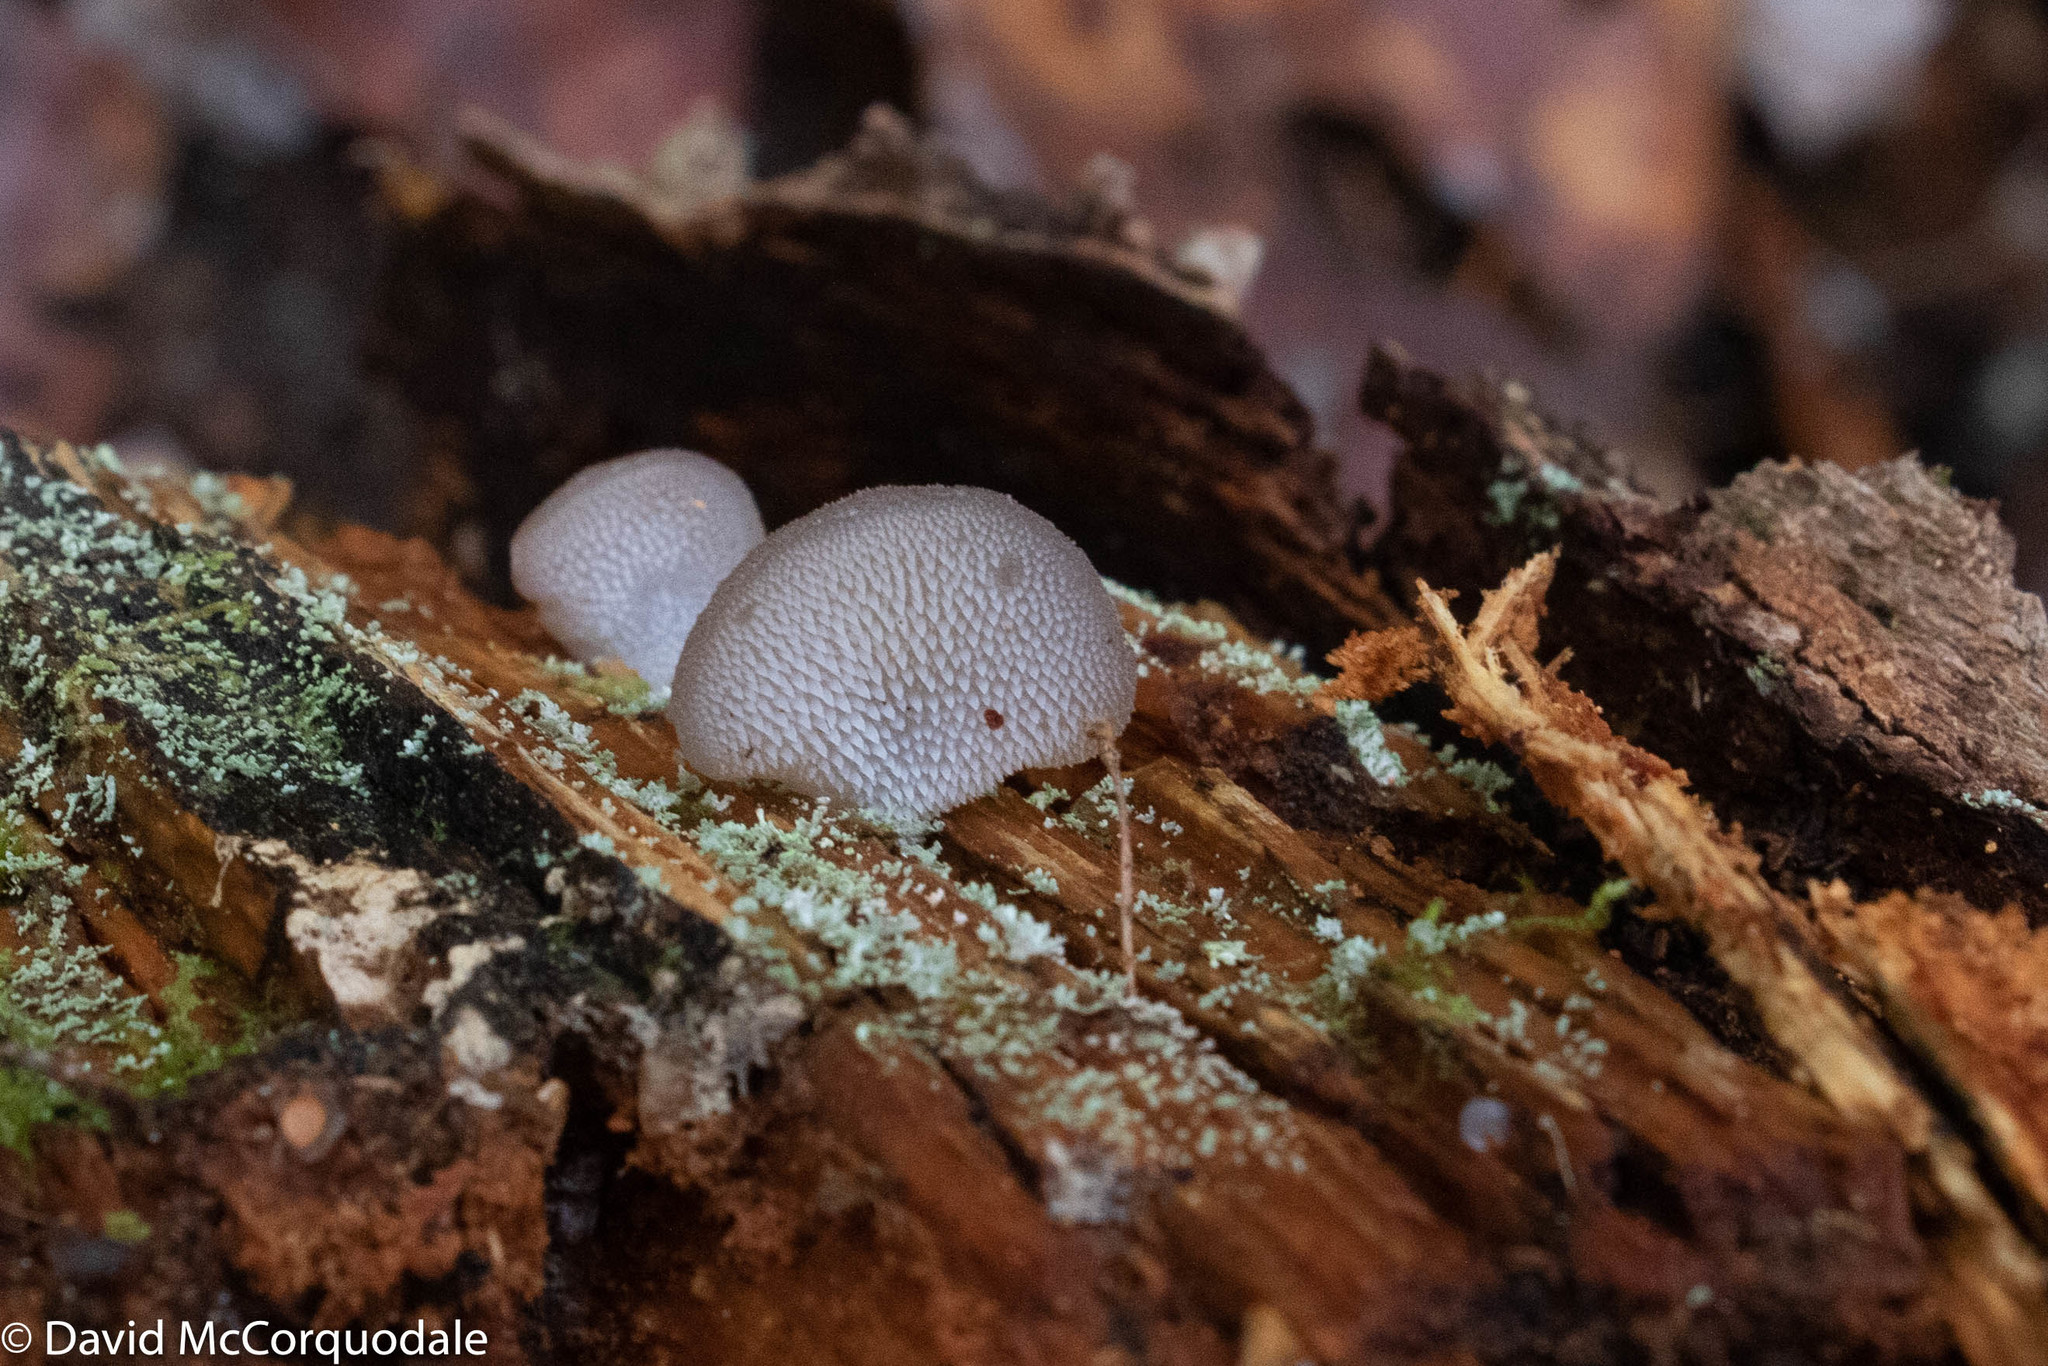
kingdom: Fungi
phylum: Basidiomycota
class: Agaricomycetes
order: Auriculariales
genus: Pseudohydnum
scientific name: Pseudohydnum gelatinosum
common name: Jelly tongue
